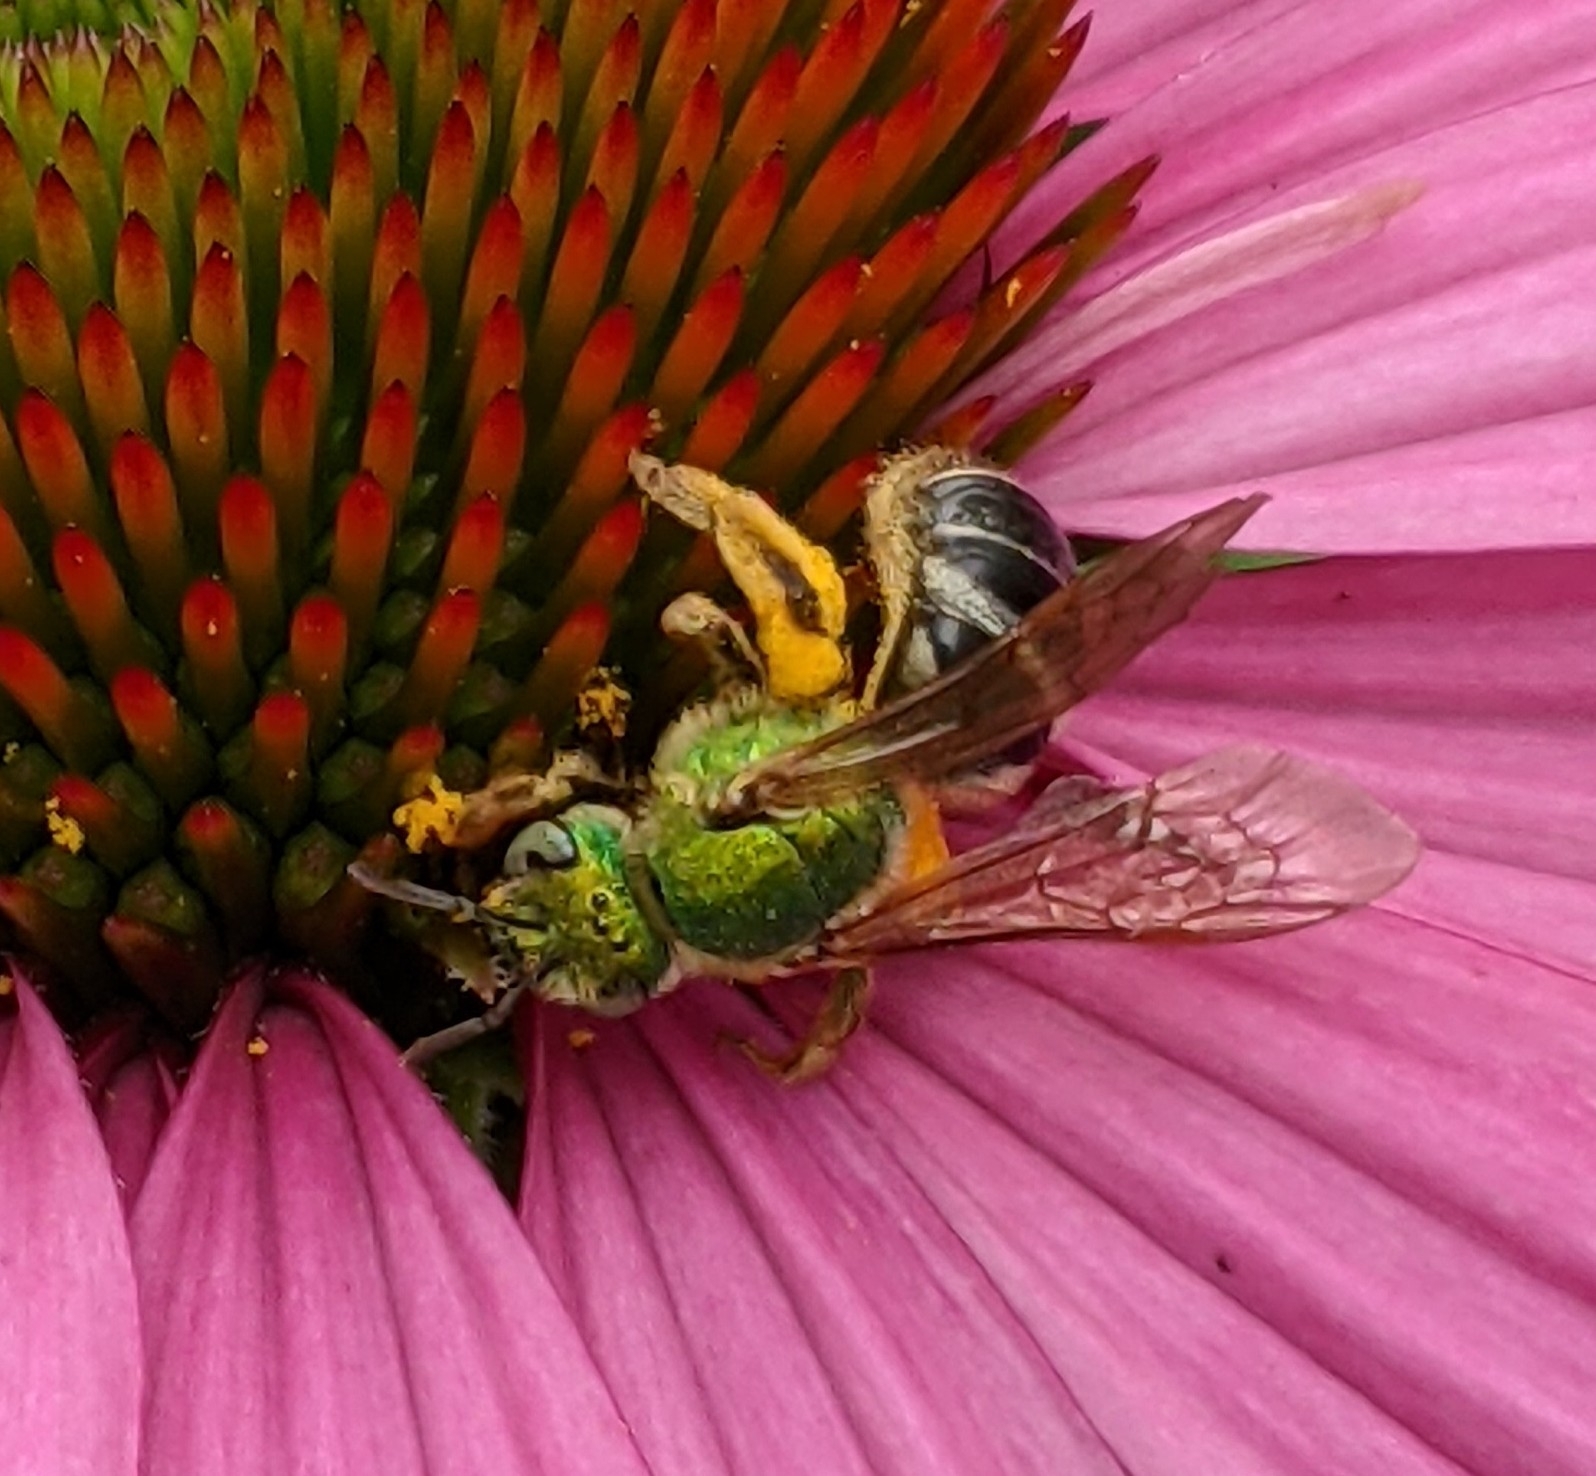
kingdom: Animalia
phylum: Arthropoda
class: Insecta
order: Hymenoptera
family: Halictidae
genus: Agapostemon
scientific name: Agapostemon virescens
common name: Bicolored striped sweat bee
